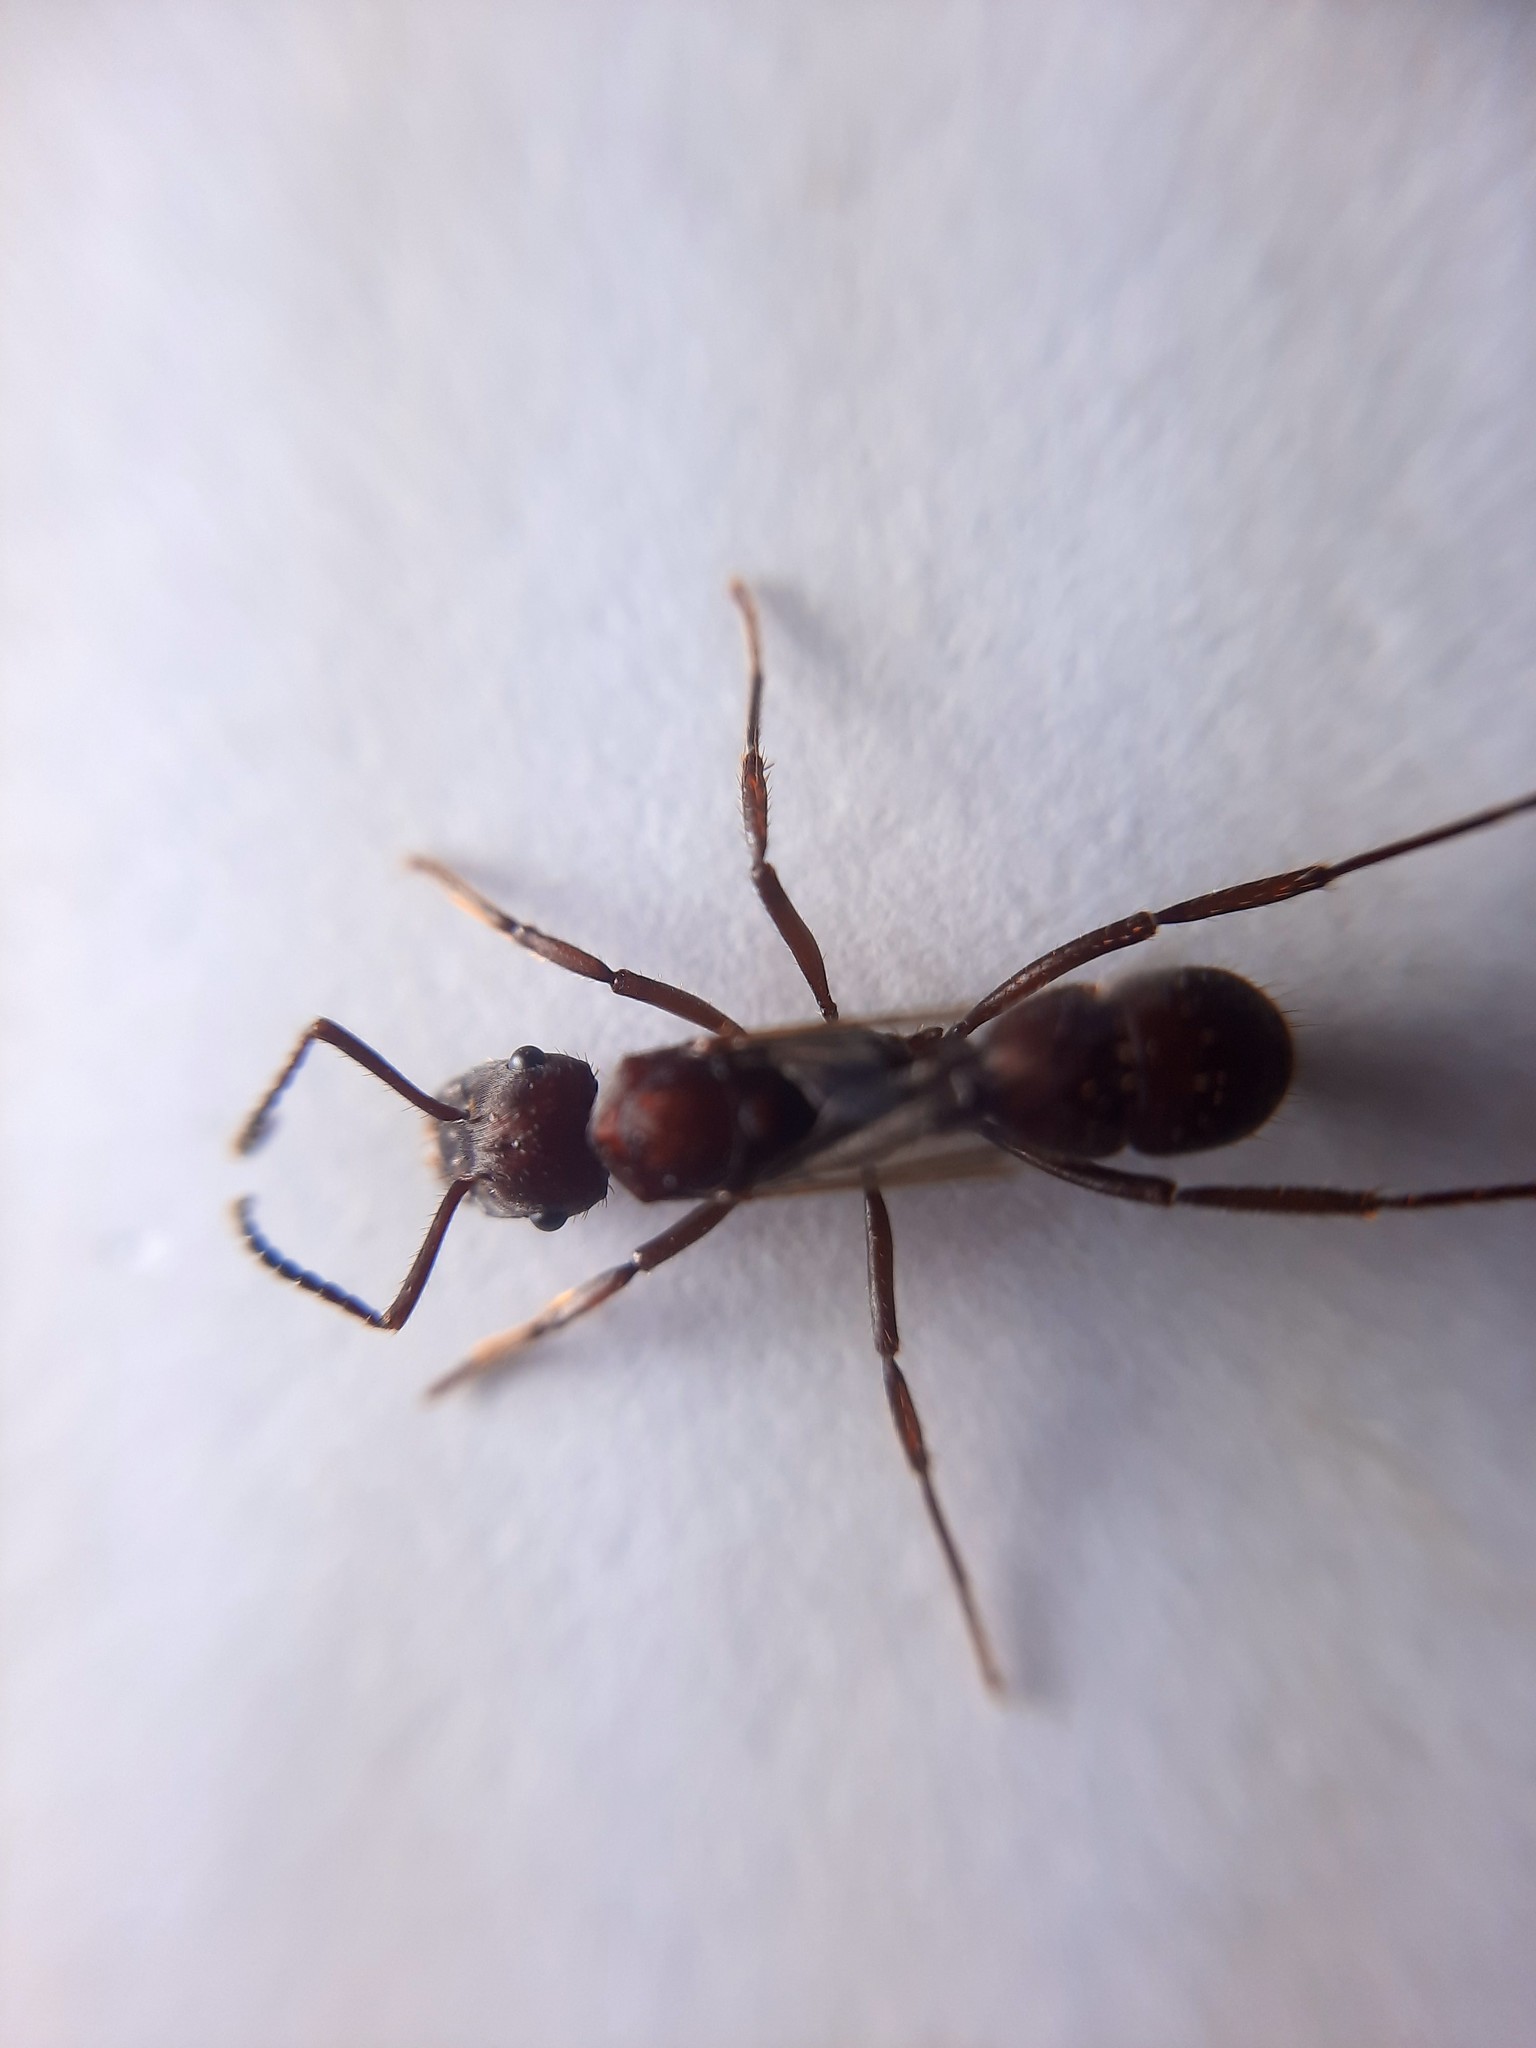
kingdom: Animalia
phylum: Arthropoda
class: Insecta
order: Hymenoptera
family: Formicidae
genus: Ectatomma
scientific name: Ectatomma planidens
